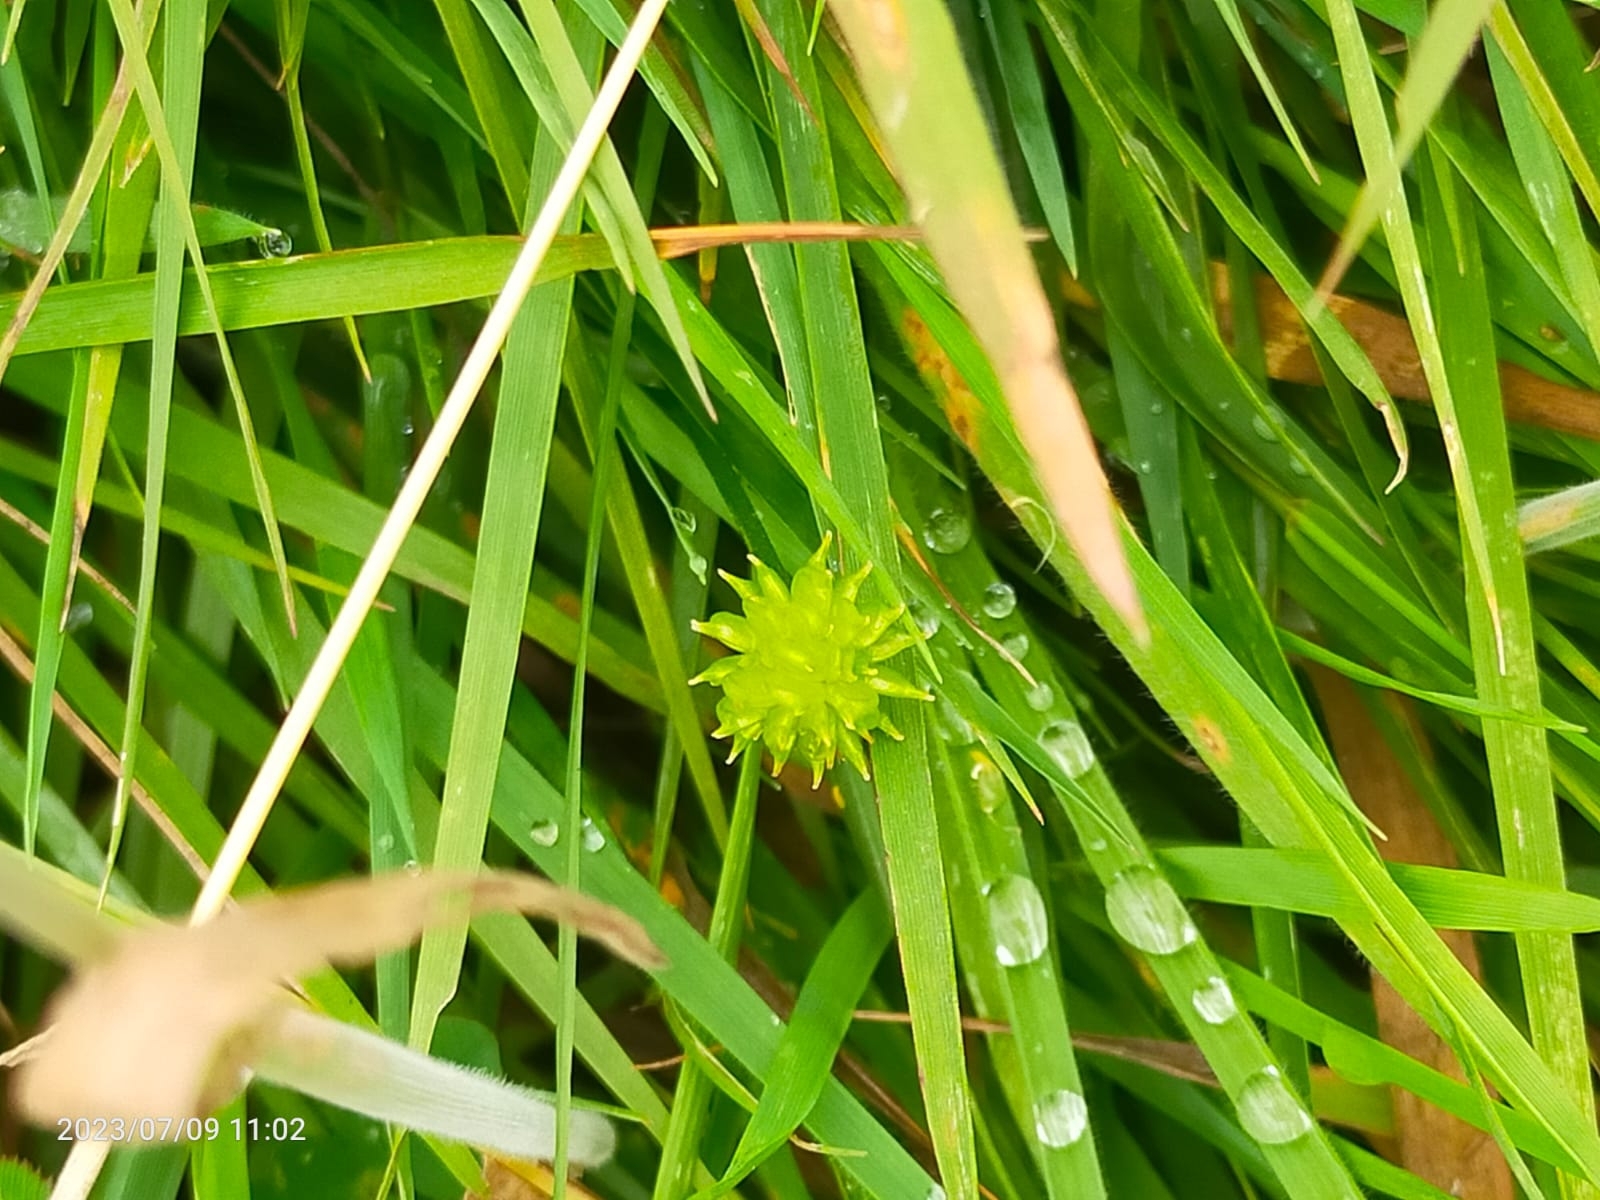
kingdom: Plantae
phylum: Tracheophyta
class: Magnoliopsida
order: Ranunculales
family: Ranunculaceae
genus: Ranunculus
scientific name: Ranunculus
